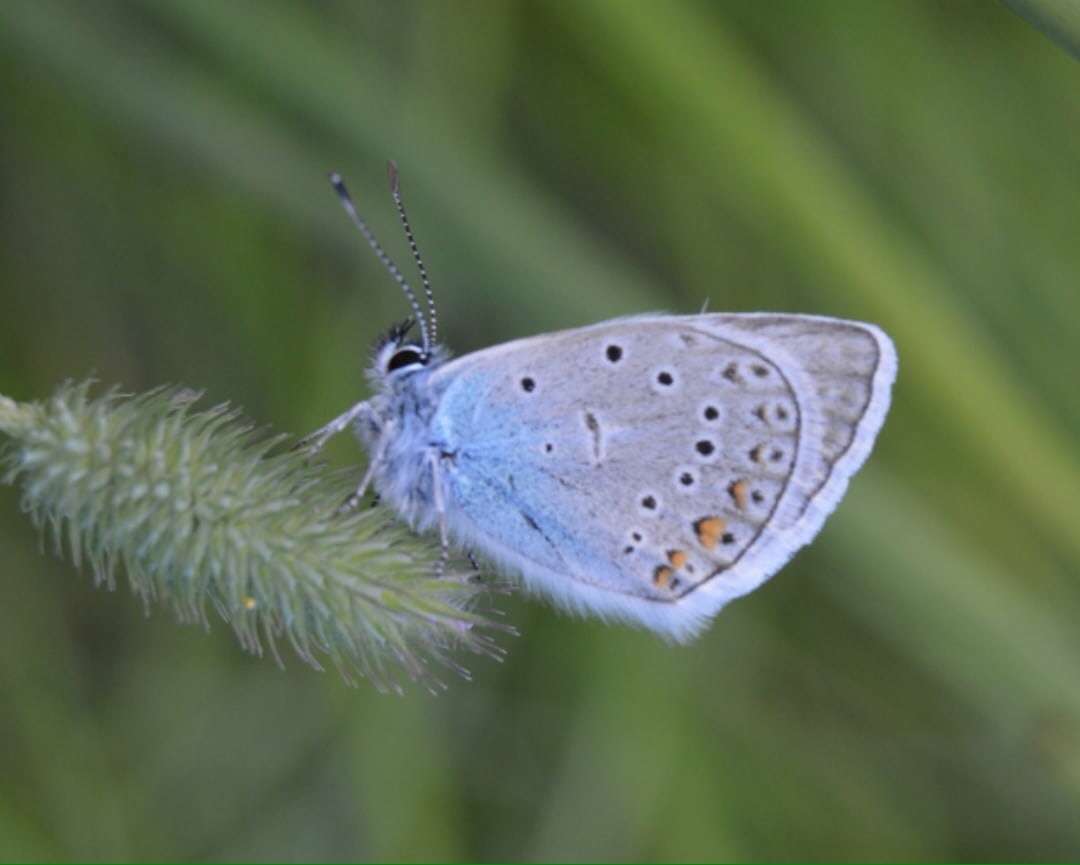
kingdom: Animalia
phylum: Arthropoda
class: Insecta
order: Lepidoptera
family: Lycaenidae
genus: Plebejus
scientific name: Plebejus amanda
